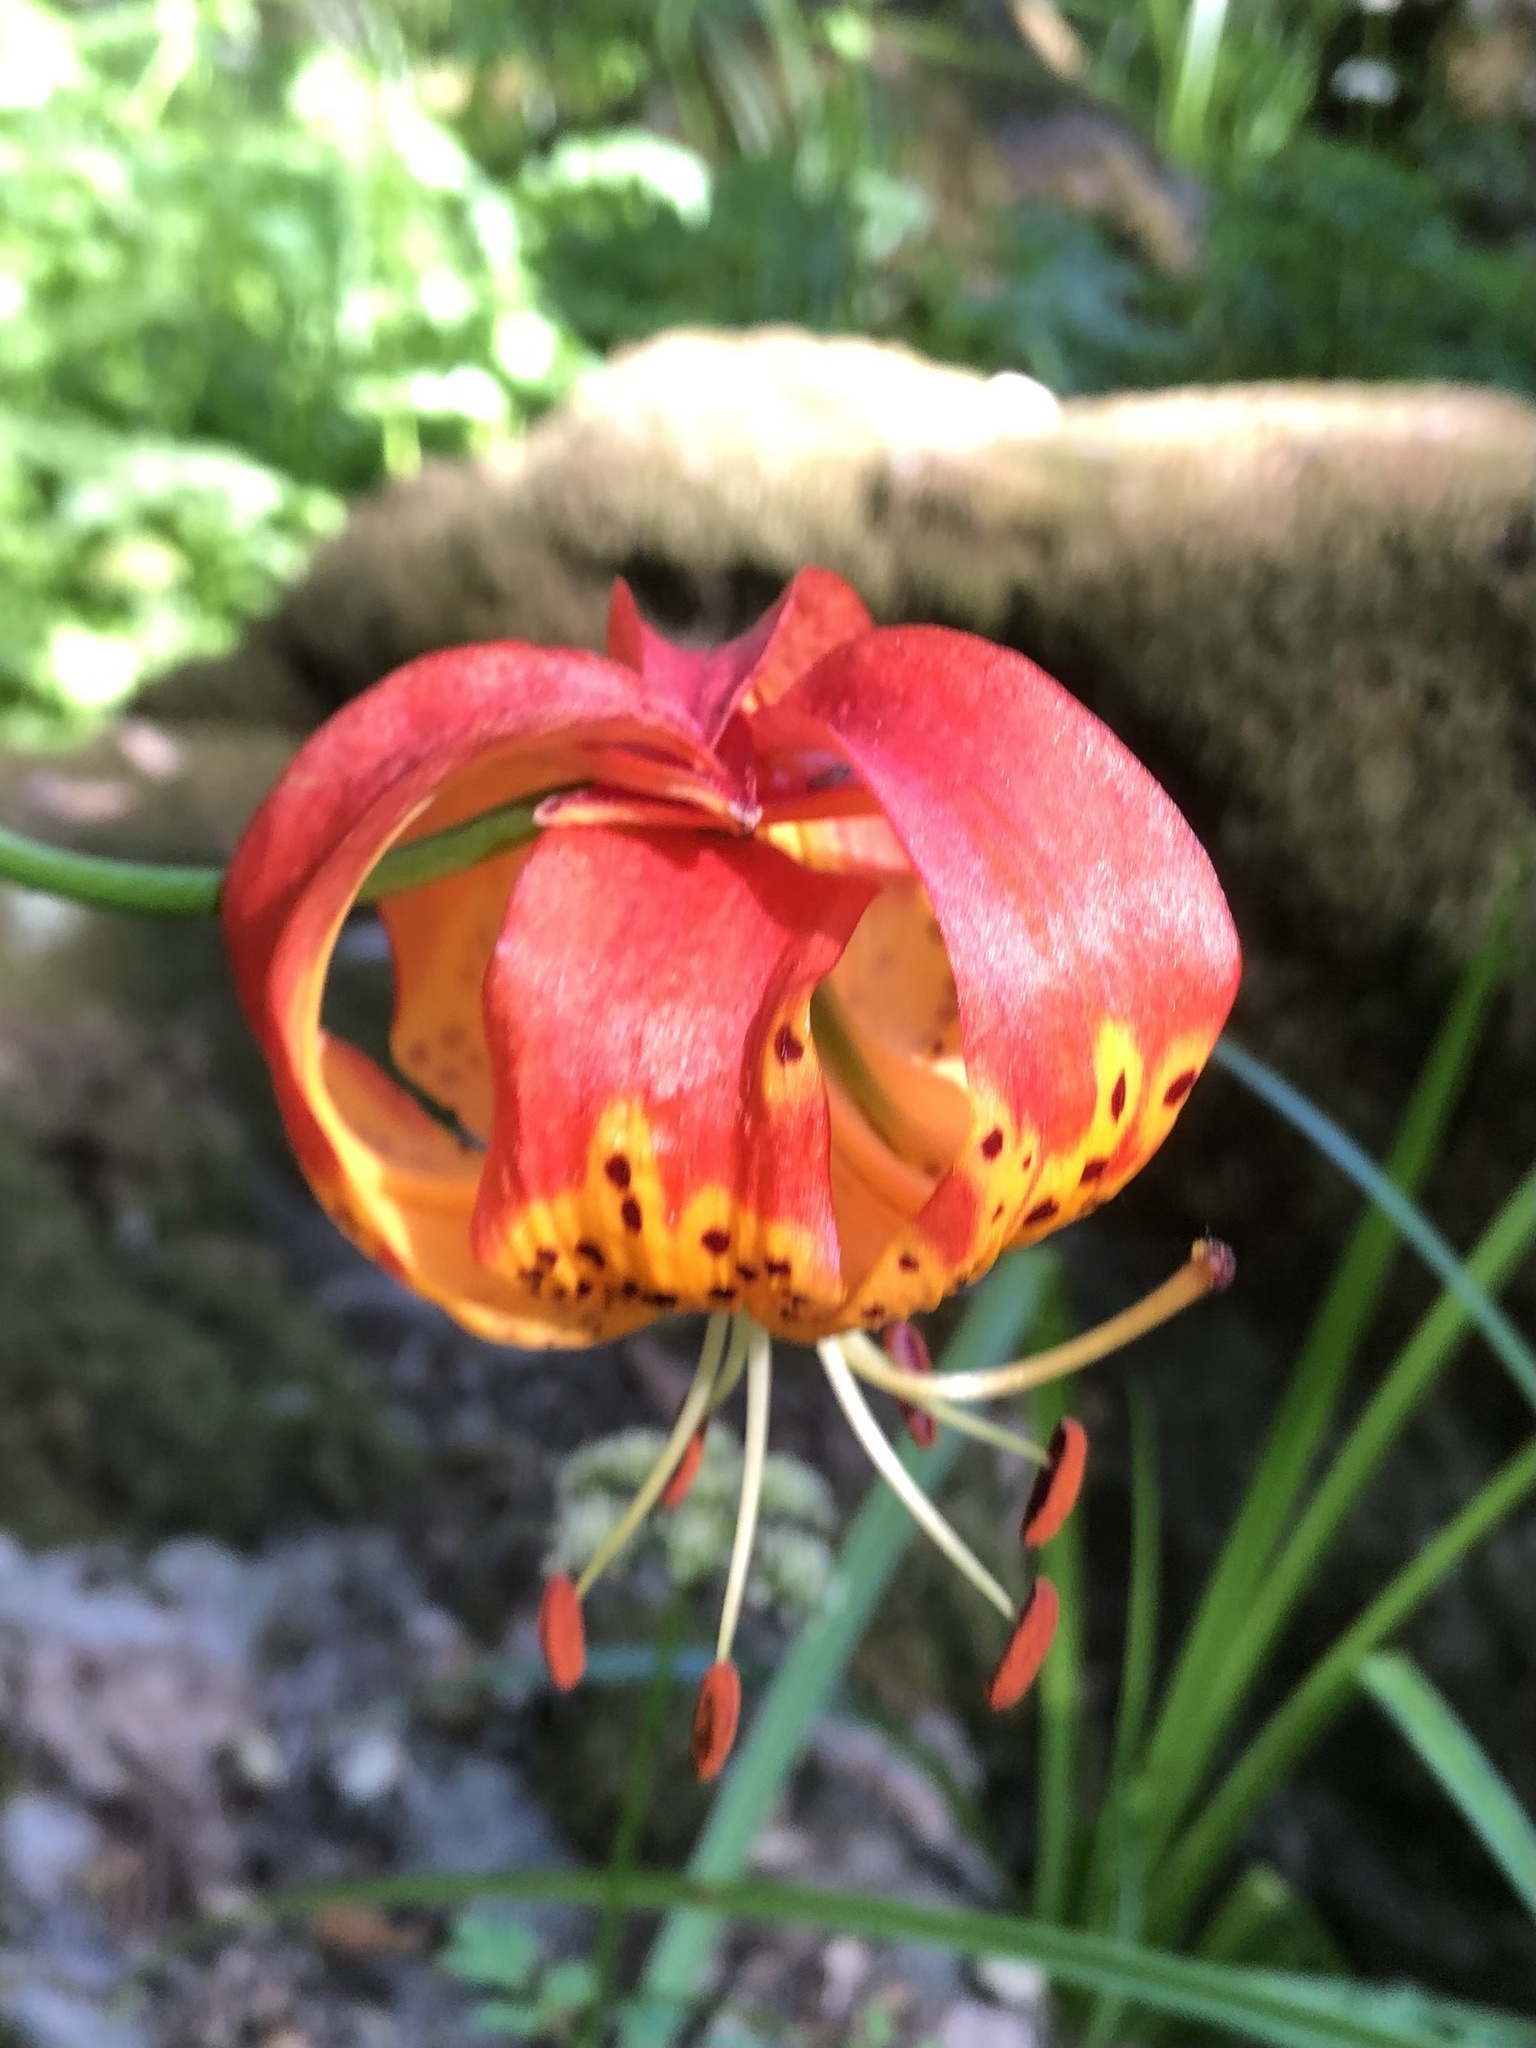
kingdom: Plantae
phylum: Tracheophyta
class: Liliopsida
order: Liliales
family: Liliaceae
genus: Lilium
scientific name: Lilium pardalinum
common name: Panther lily
